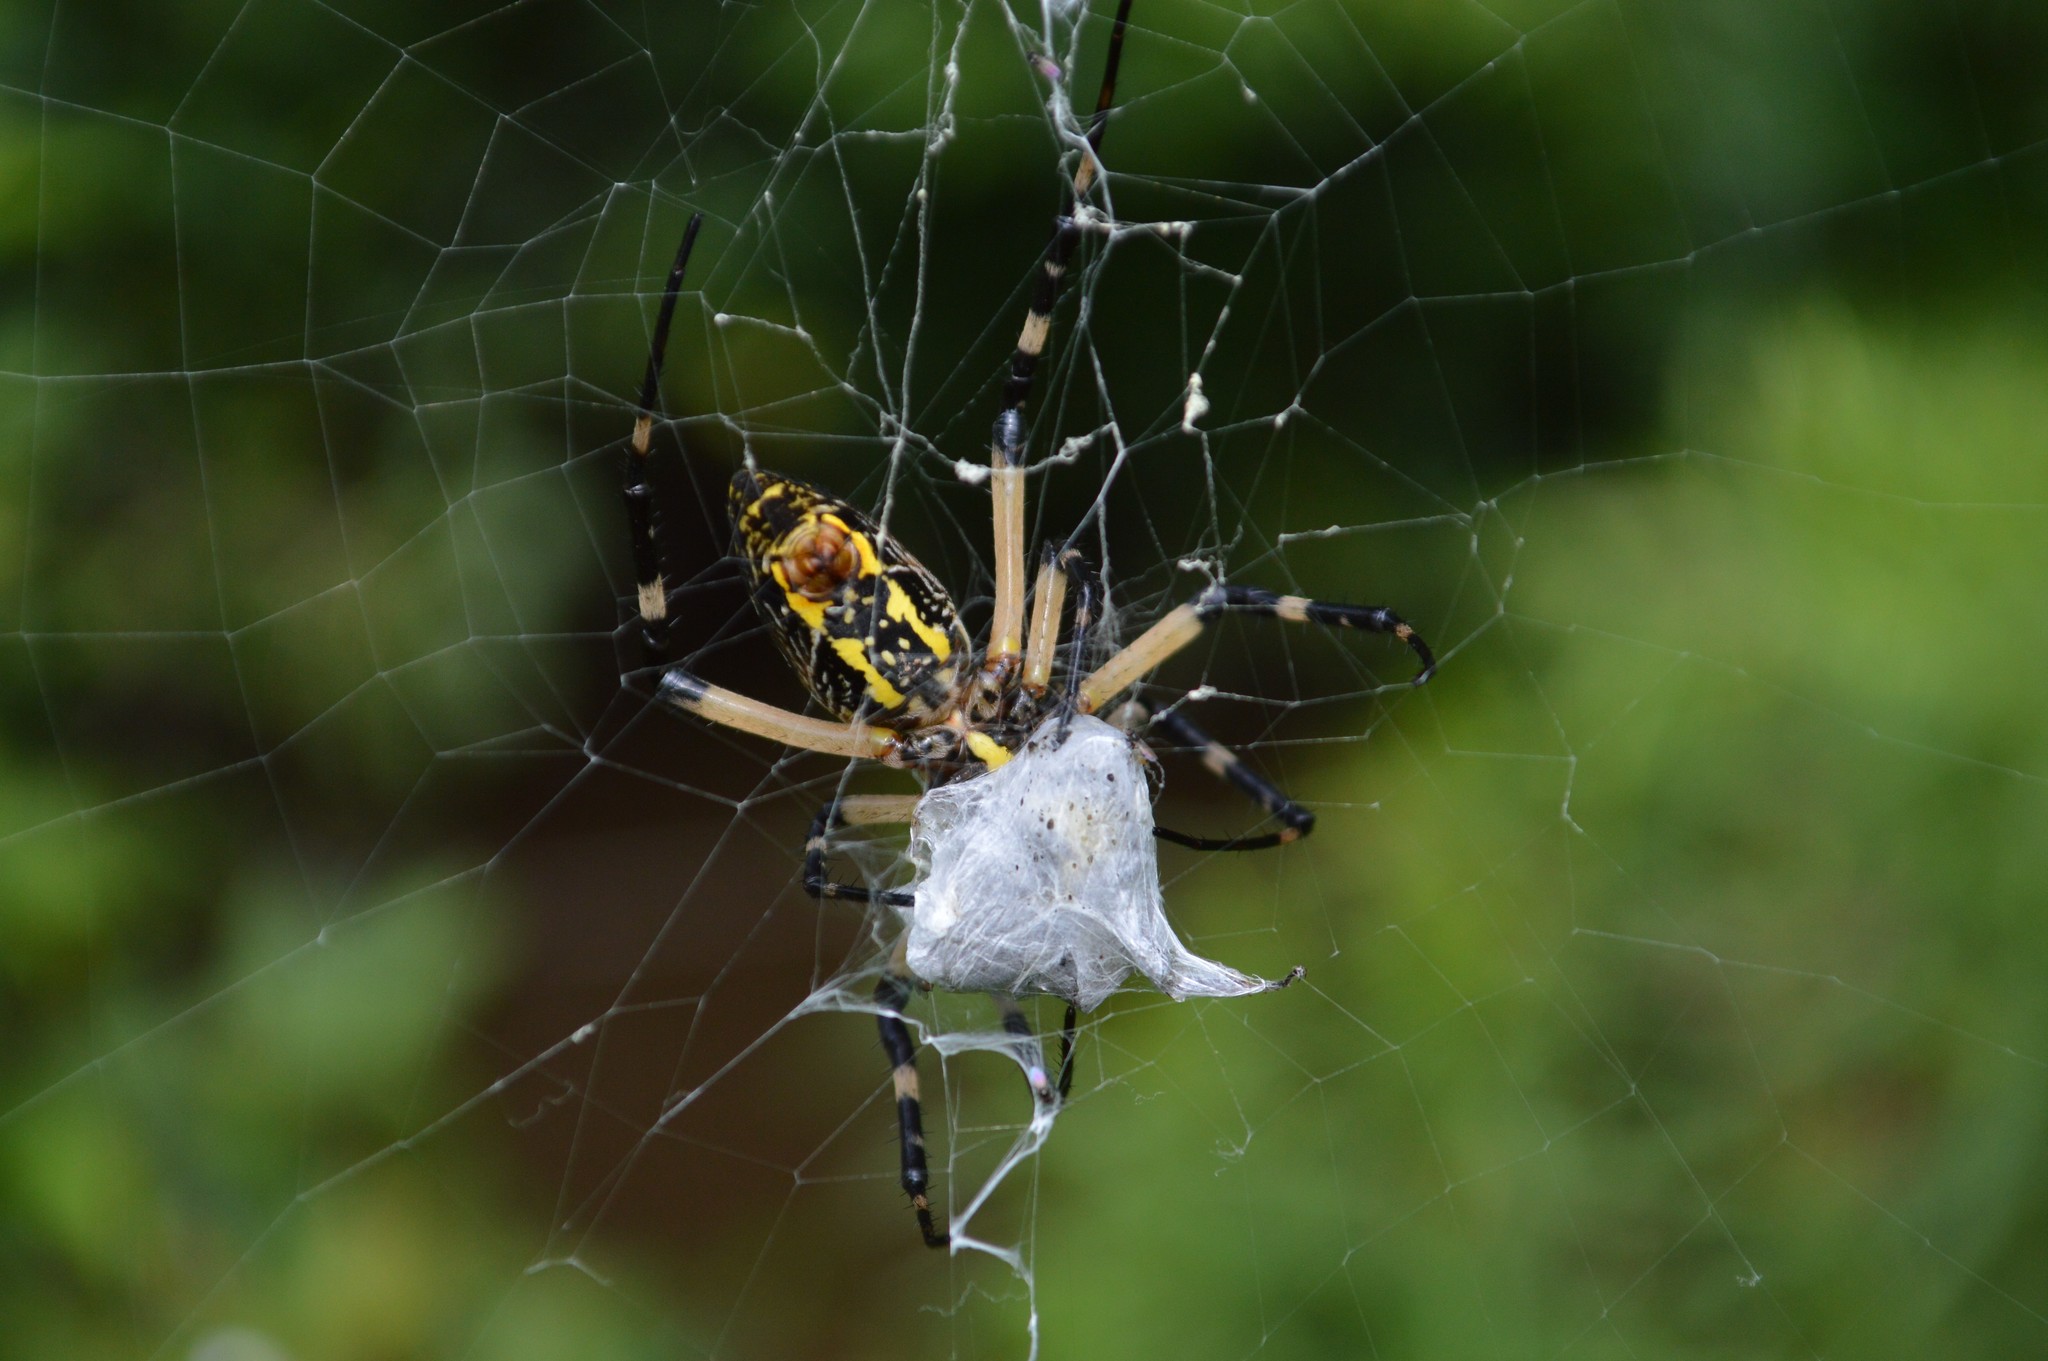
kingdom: Animalia
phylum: Arthropoda
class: Arachnida
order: Araneae
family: Araneidae
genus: Argiope
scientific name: Argiope aurantia
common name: Orb weavers
